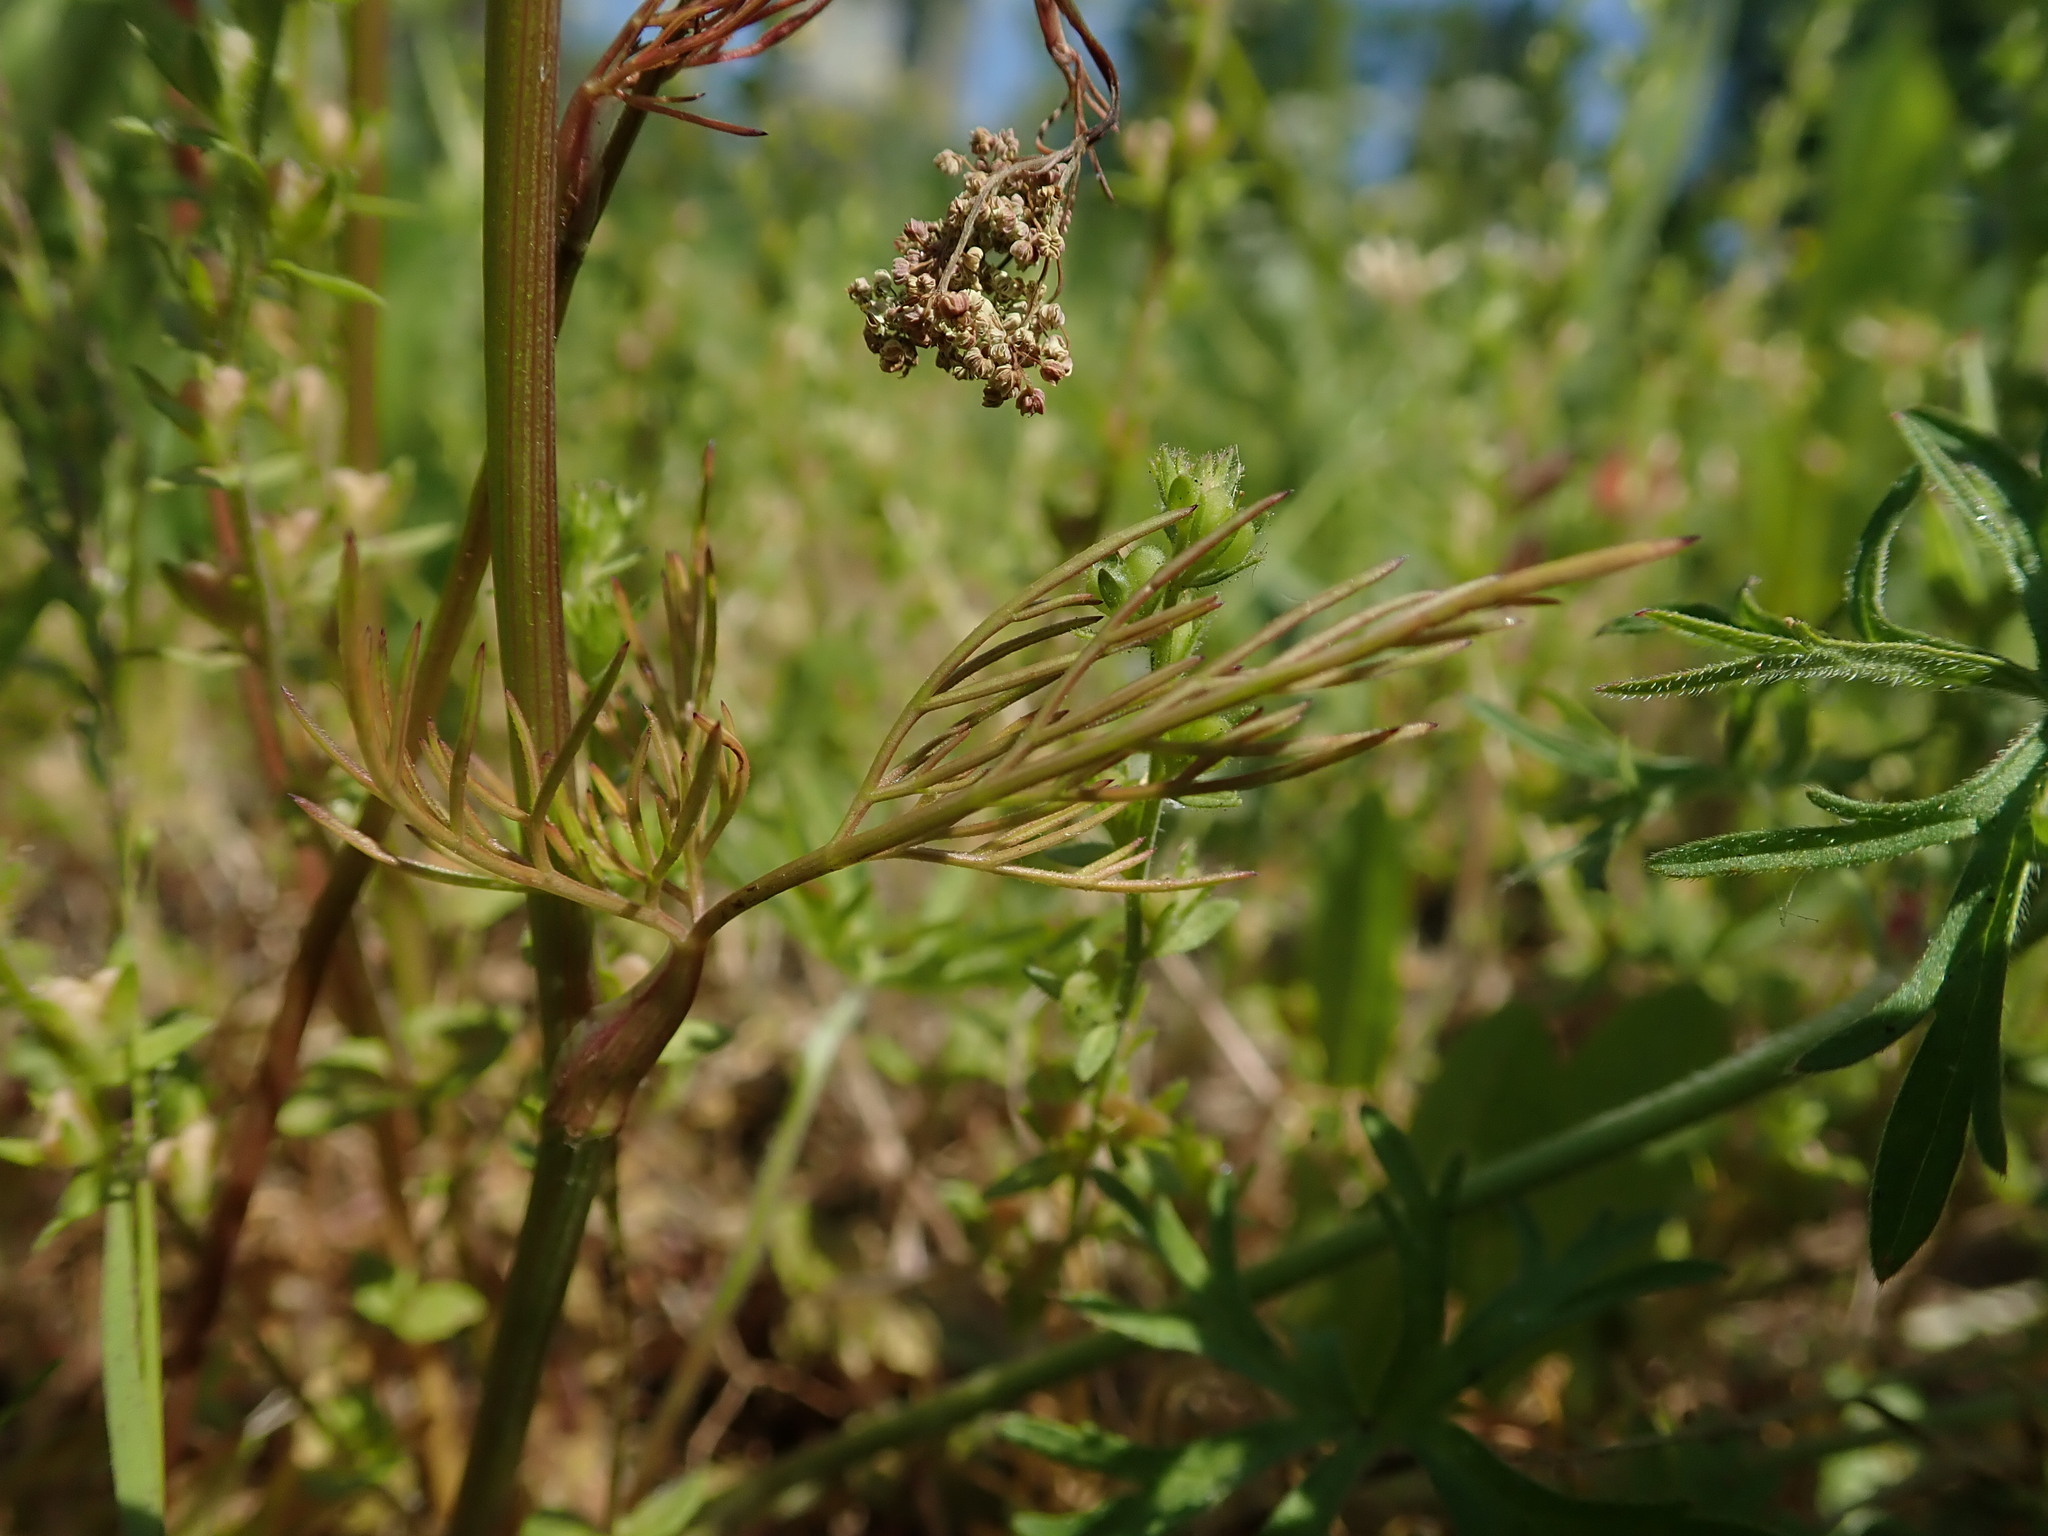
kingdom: Plantae
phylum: Tracheophyta
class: Magnoliopsida
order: Apiales
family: Apiaceae
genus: Conopodium
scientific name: Conopodium majus
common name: Pignut
